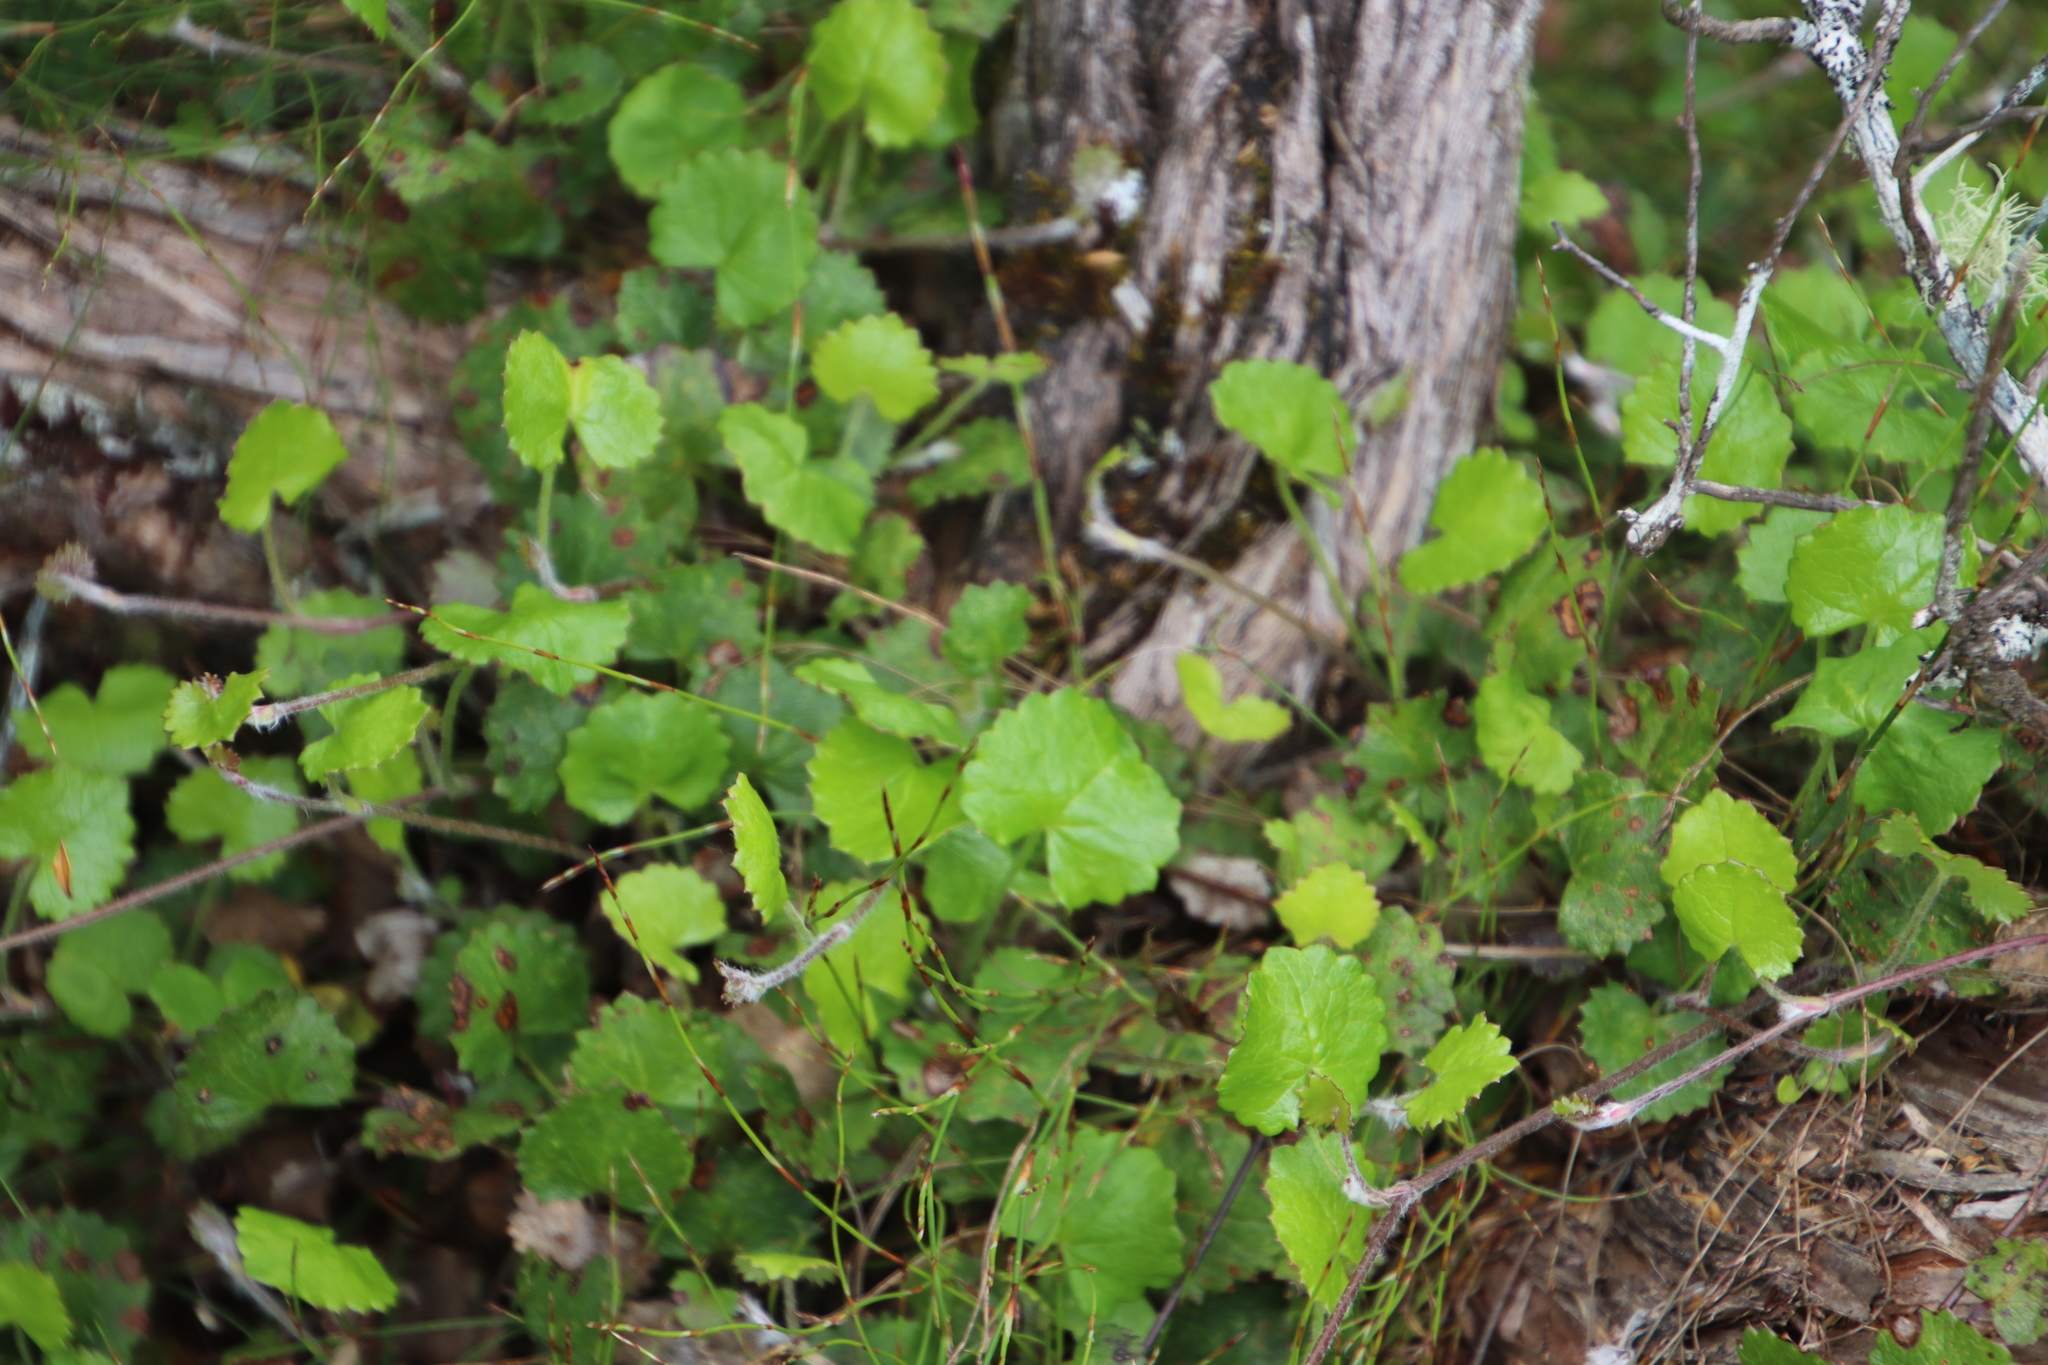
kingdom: Plantae
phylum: Tracheophyta
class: Magnoliopsida
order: Apiales
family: Apiaceae
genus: Centella
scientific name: Centella eriantha
